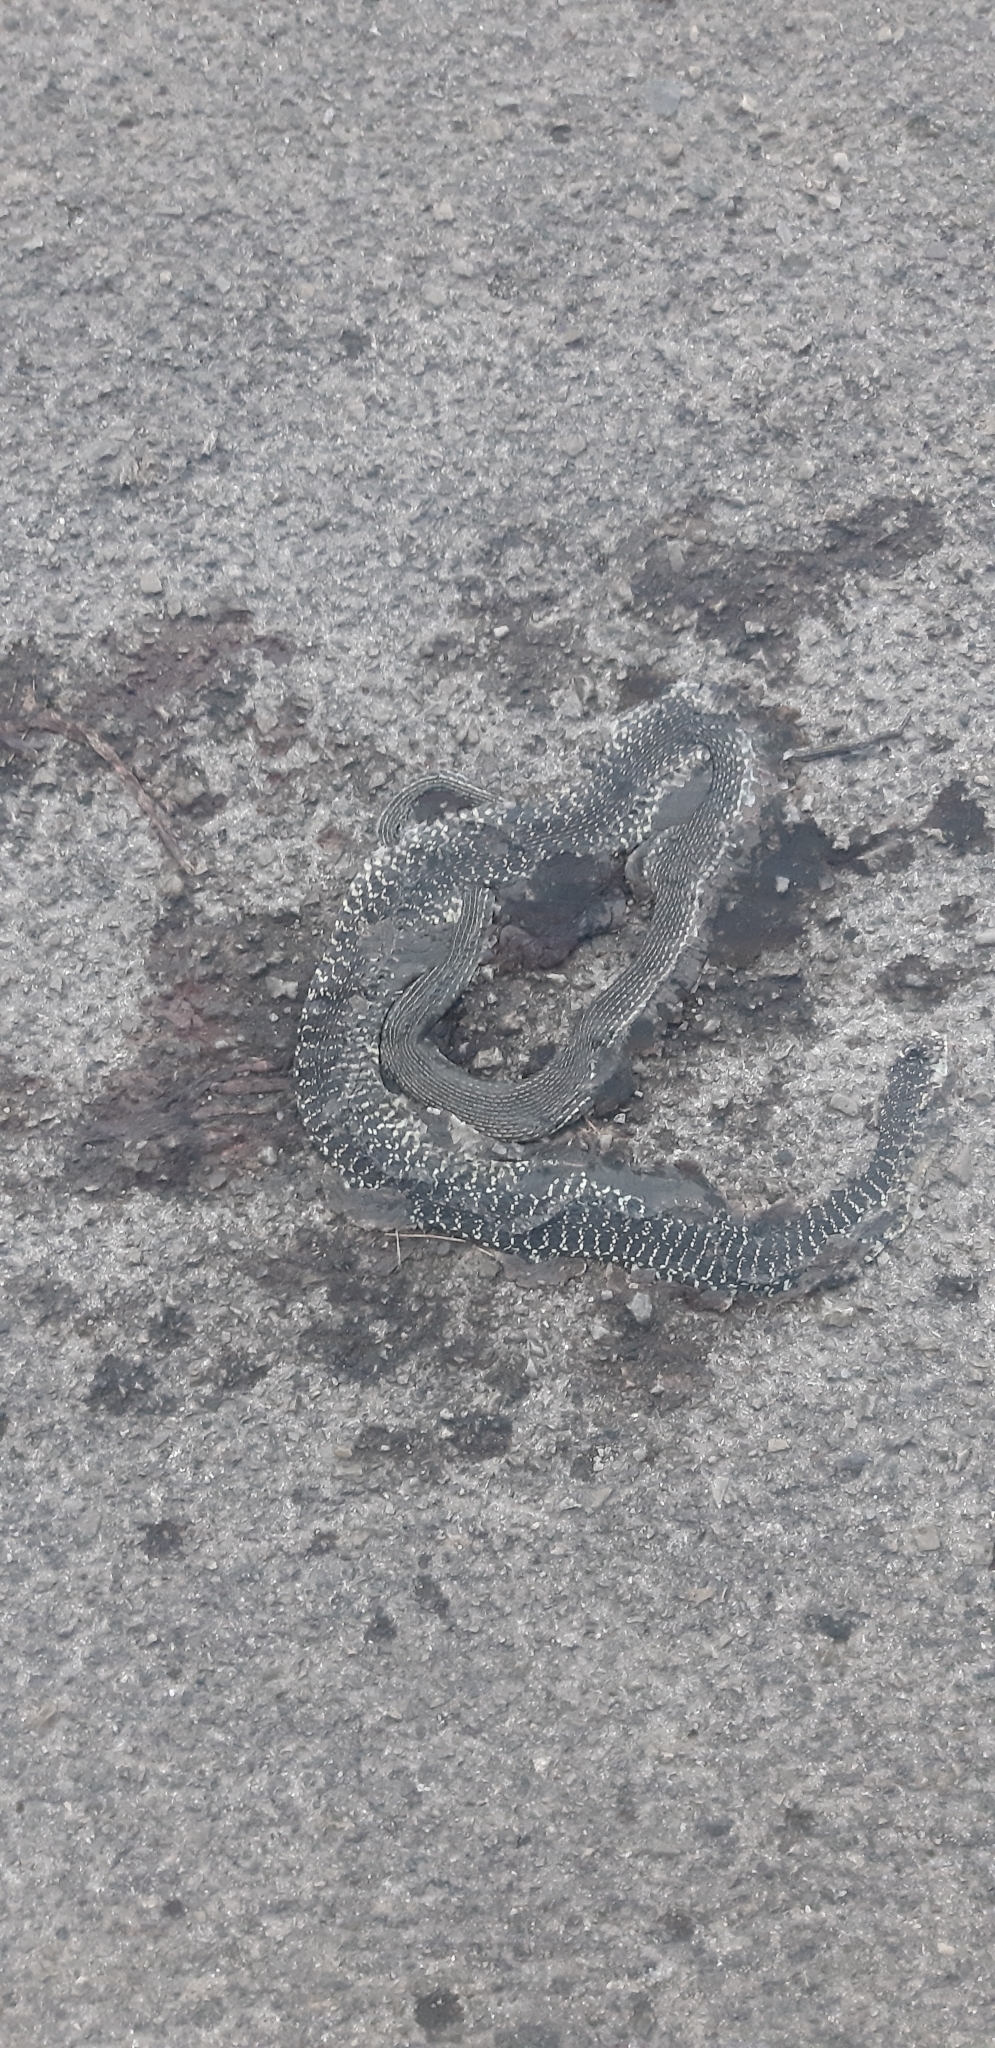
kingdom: Animalia
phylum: Chordata
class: Squamata
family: Colubridae
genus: Hierophis
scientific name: Hierophis viridiflavus
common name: Green whip snake
